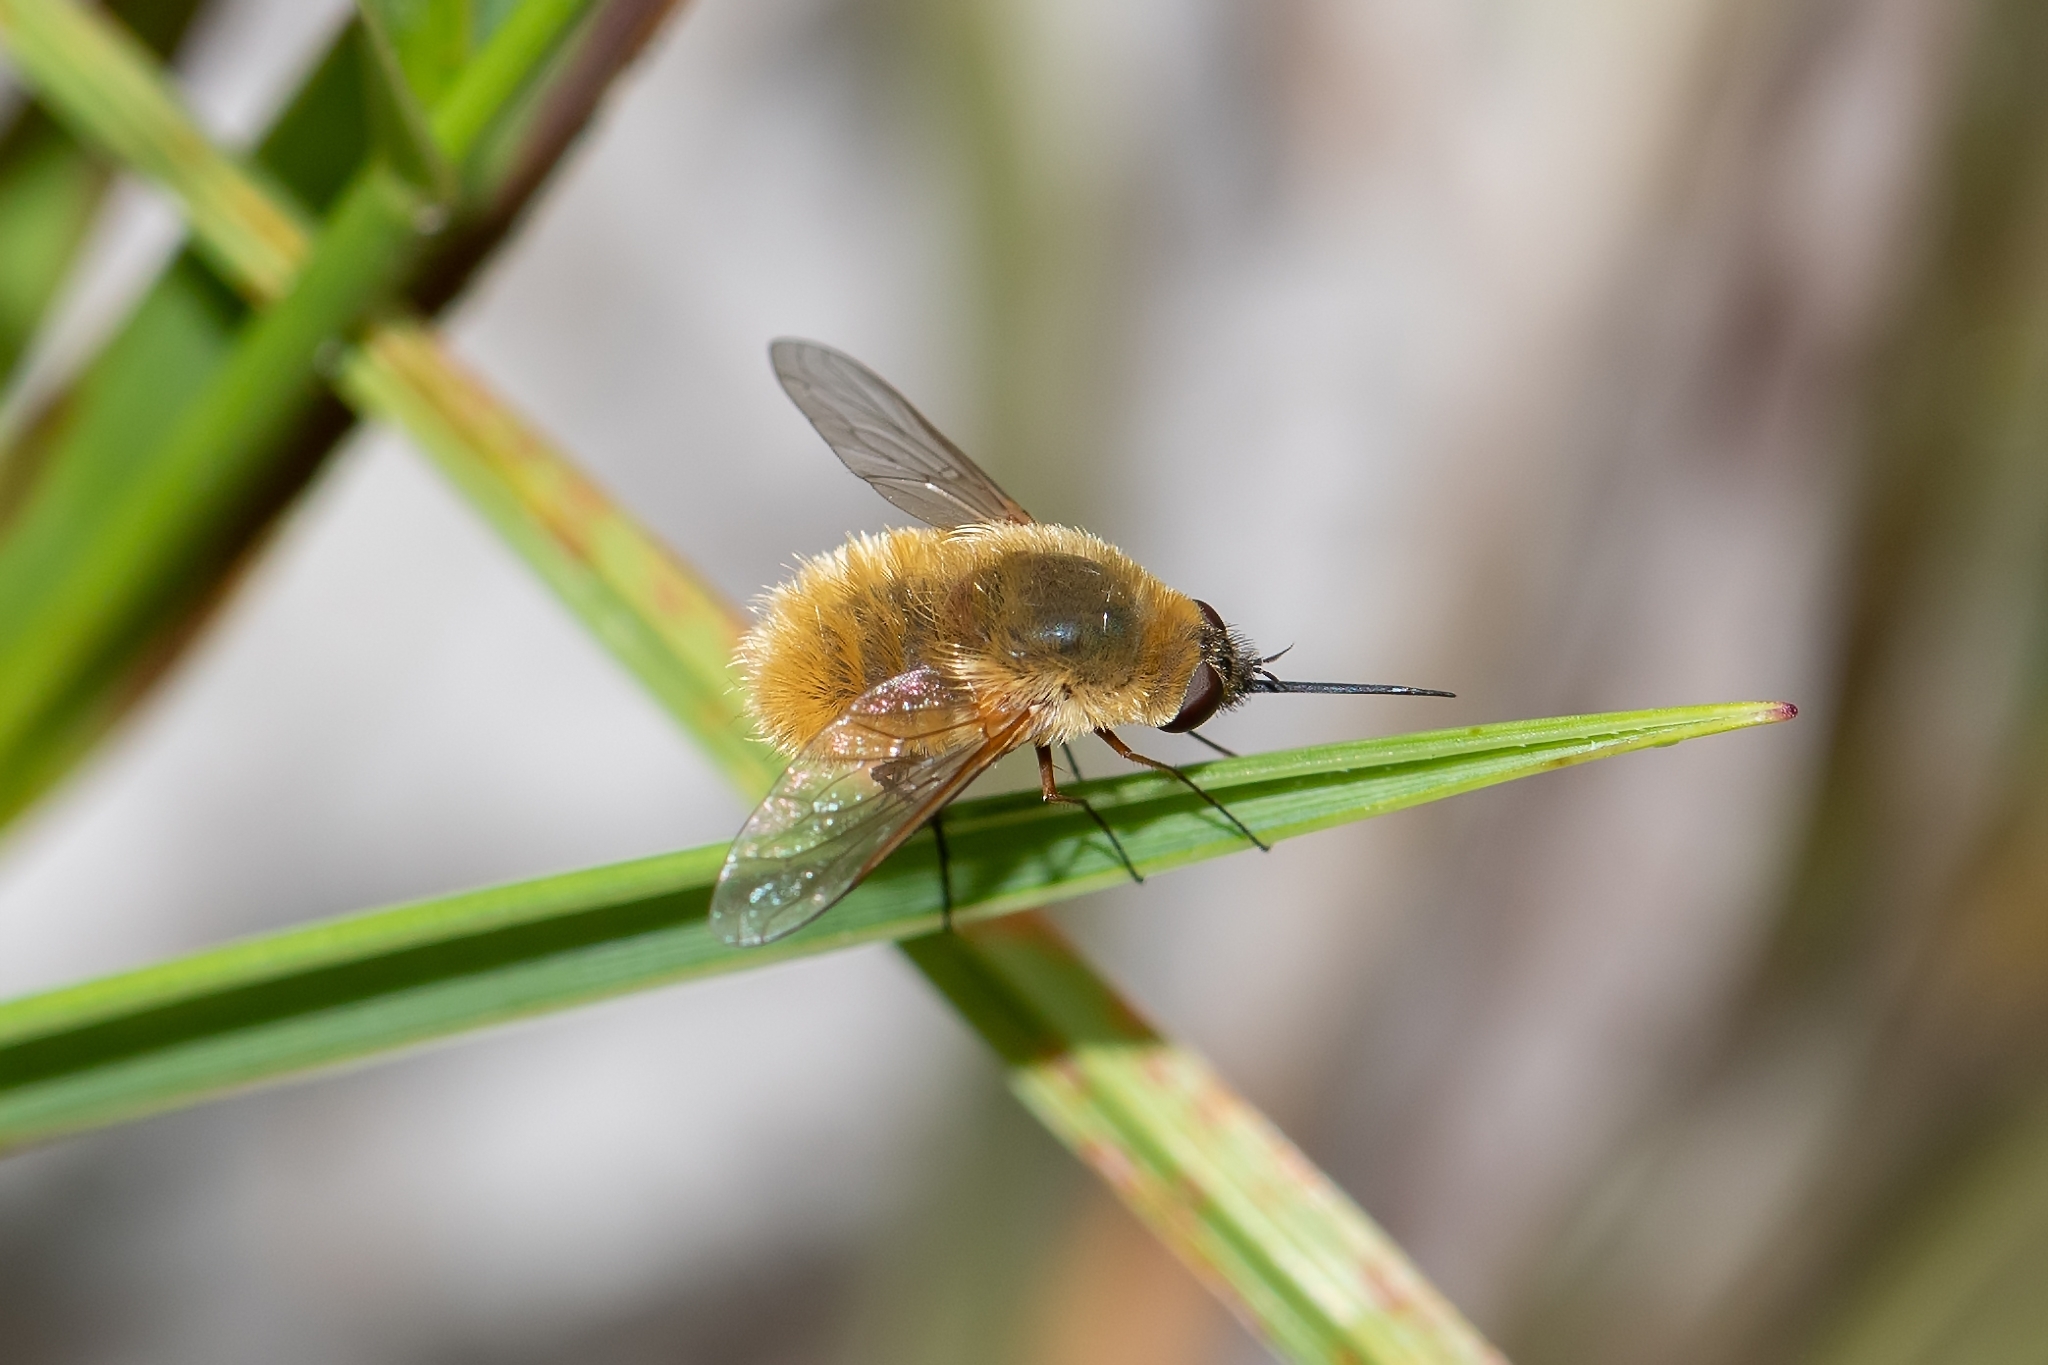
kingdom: Animalia
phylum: Arthropoda
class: Insecta
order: Diptera
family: Bombyliidae
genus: Systoechus
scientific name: Systoechus solitus
